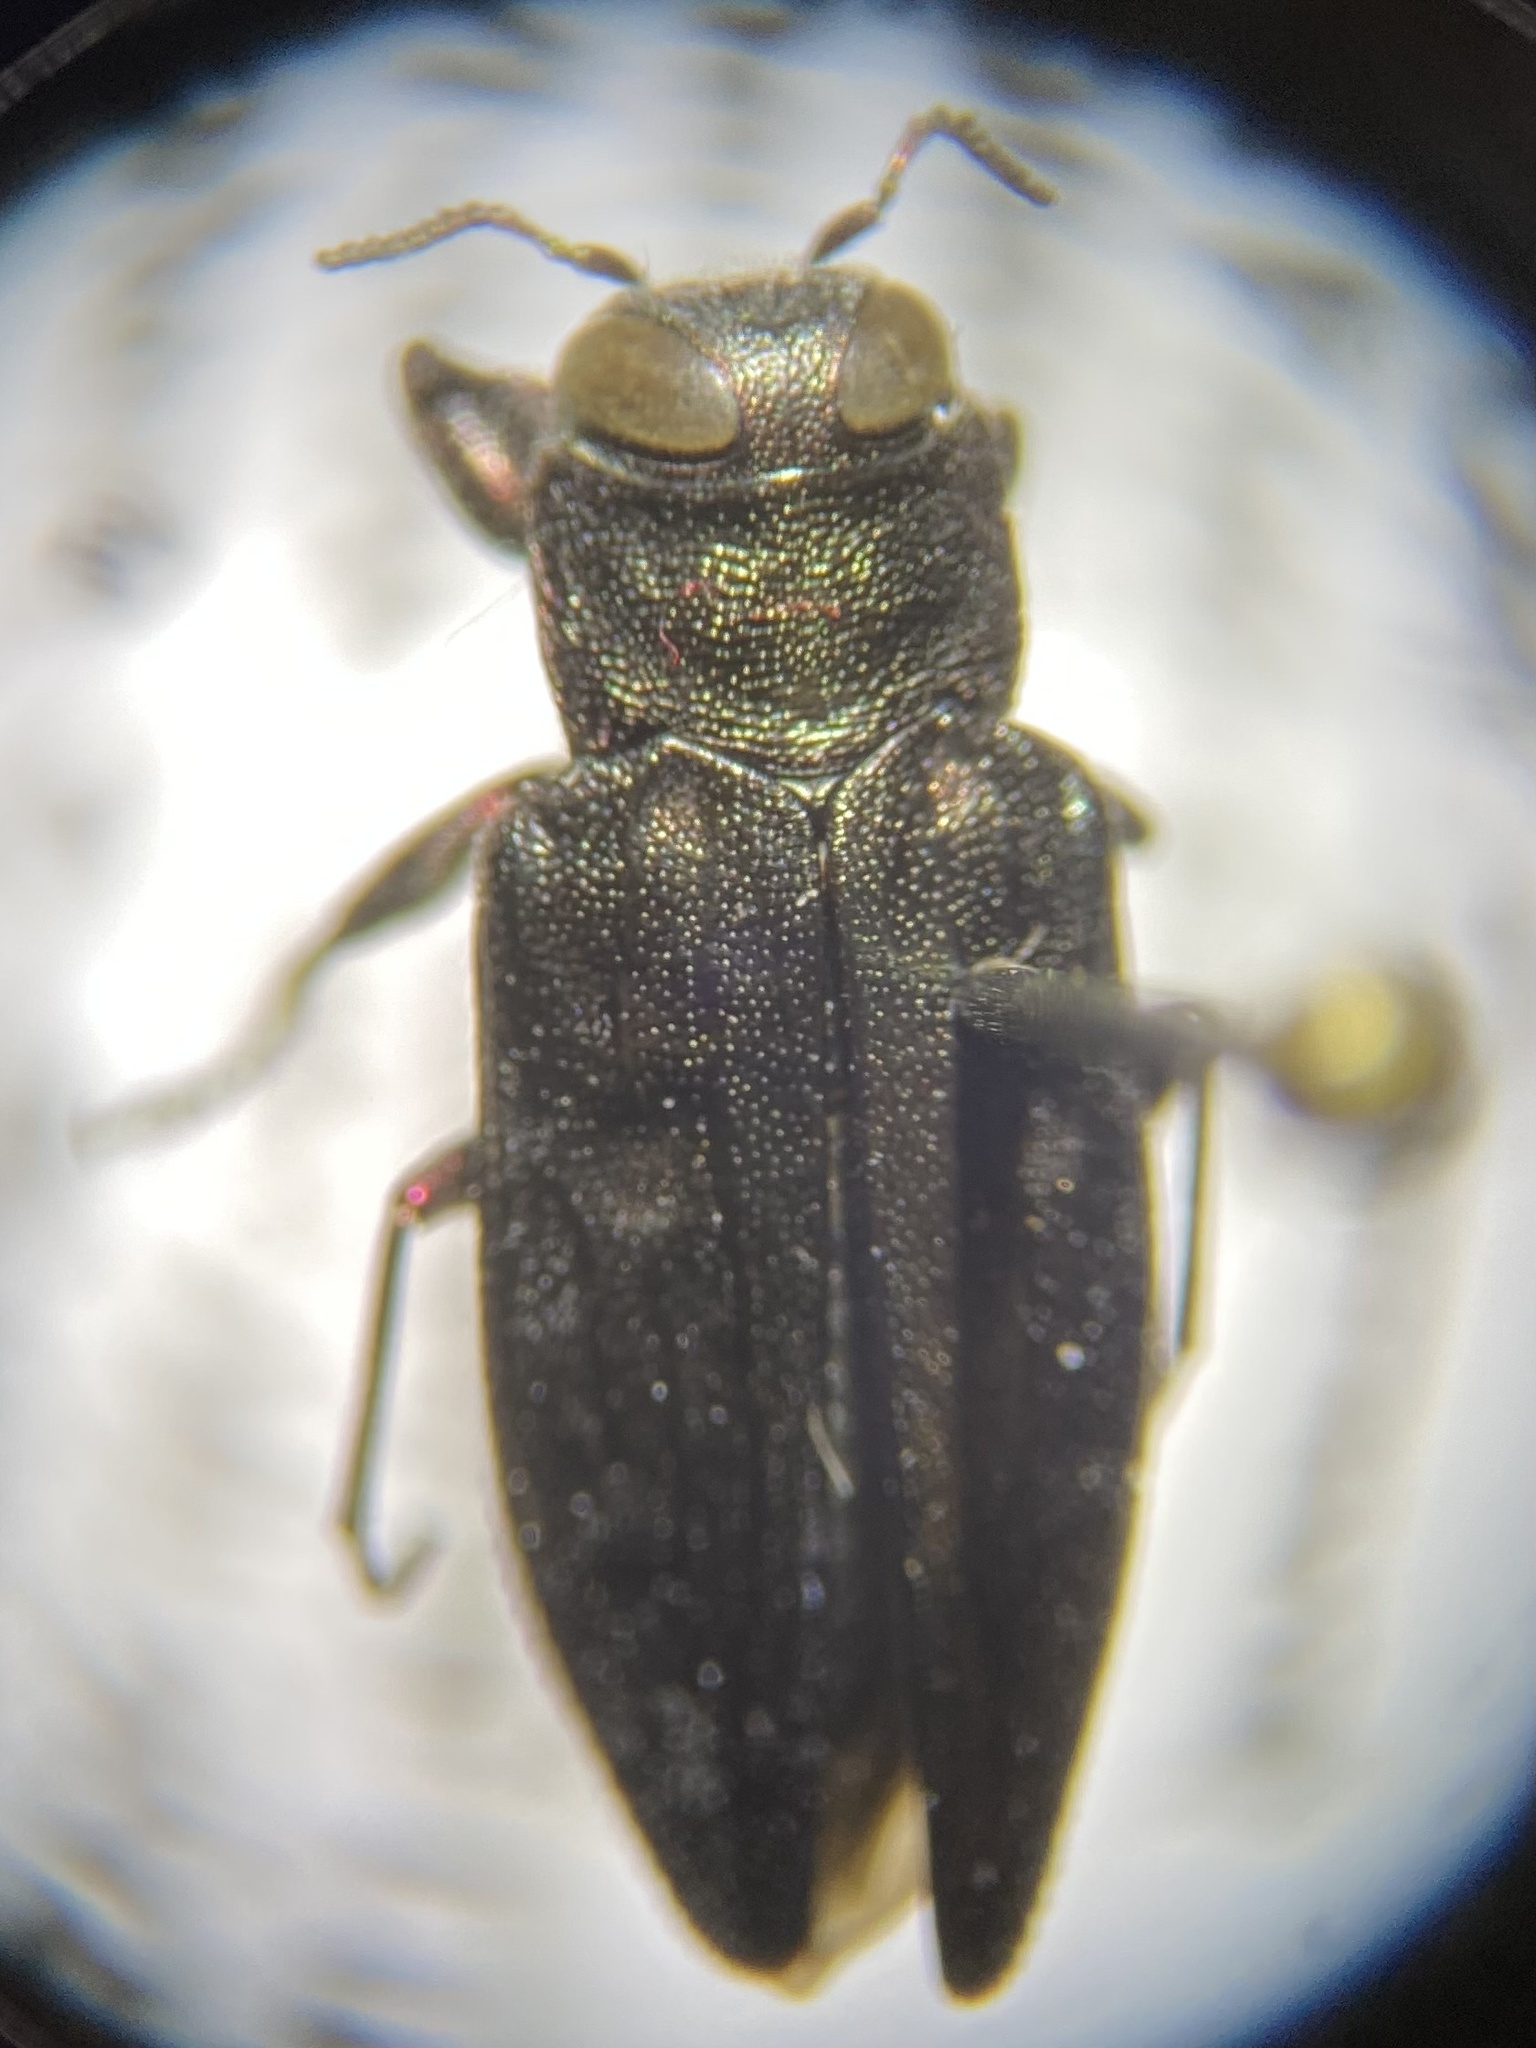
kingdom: Animalia
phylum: Arthropoda
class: Insecta
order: Coleoptera
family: Buprestidae
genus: Chrysobothris
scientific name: Chrysobothris sexsignata
